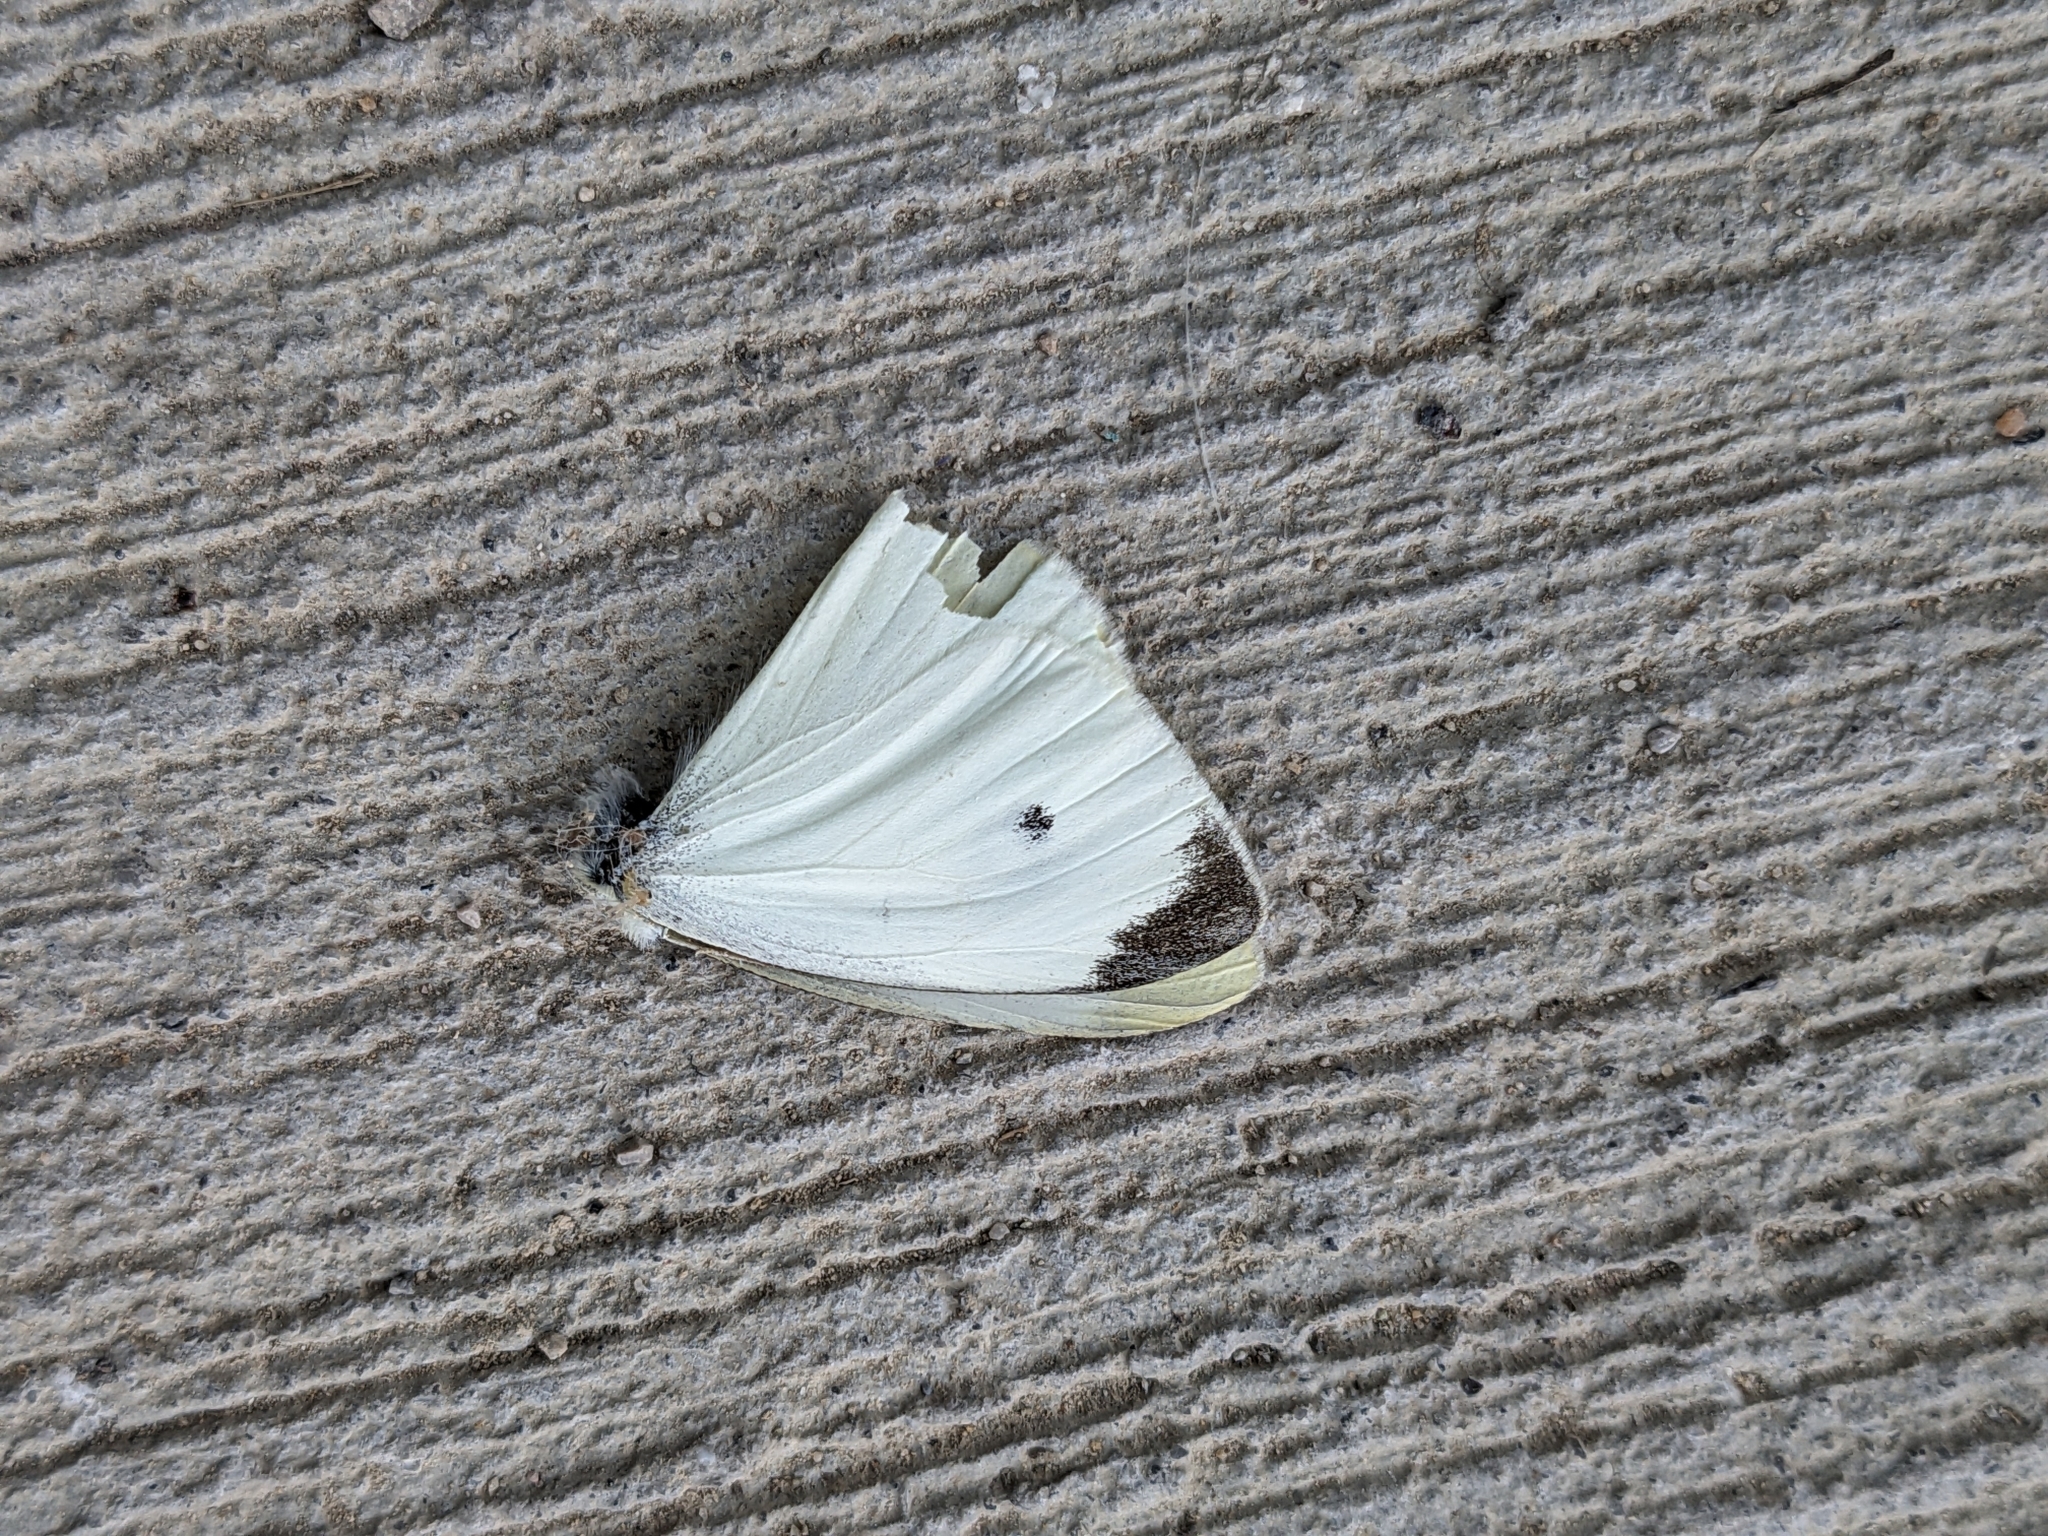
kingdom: Animalia
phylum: Arthropoda
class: Insecta
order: Lepidoptera
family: Pieridae
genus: Pieris
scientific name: Pieris rapae
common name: Small white
